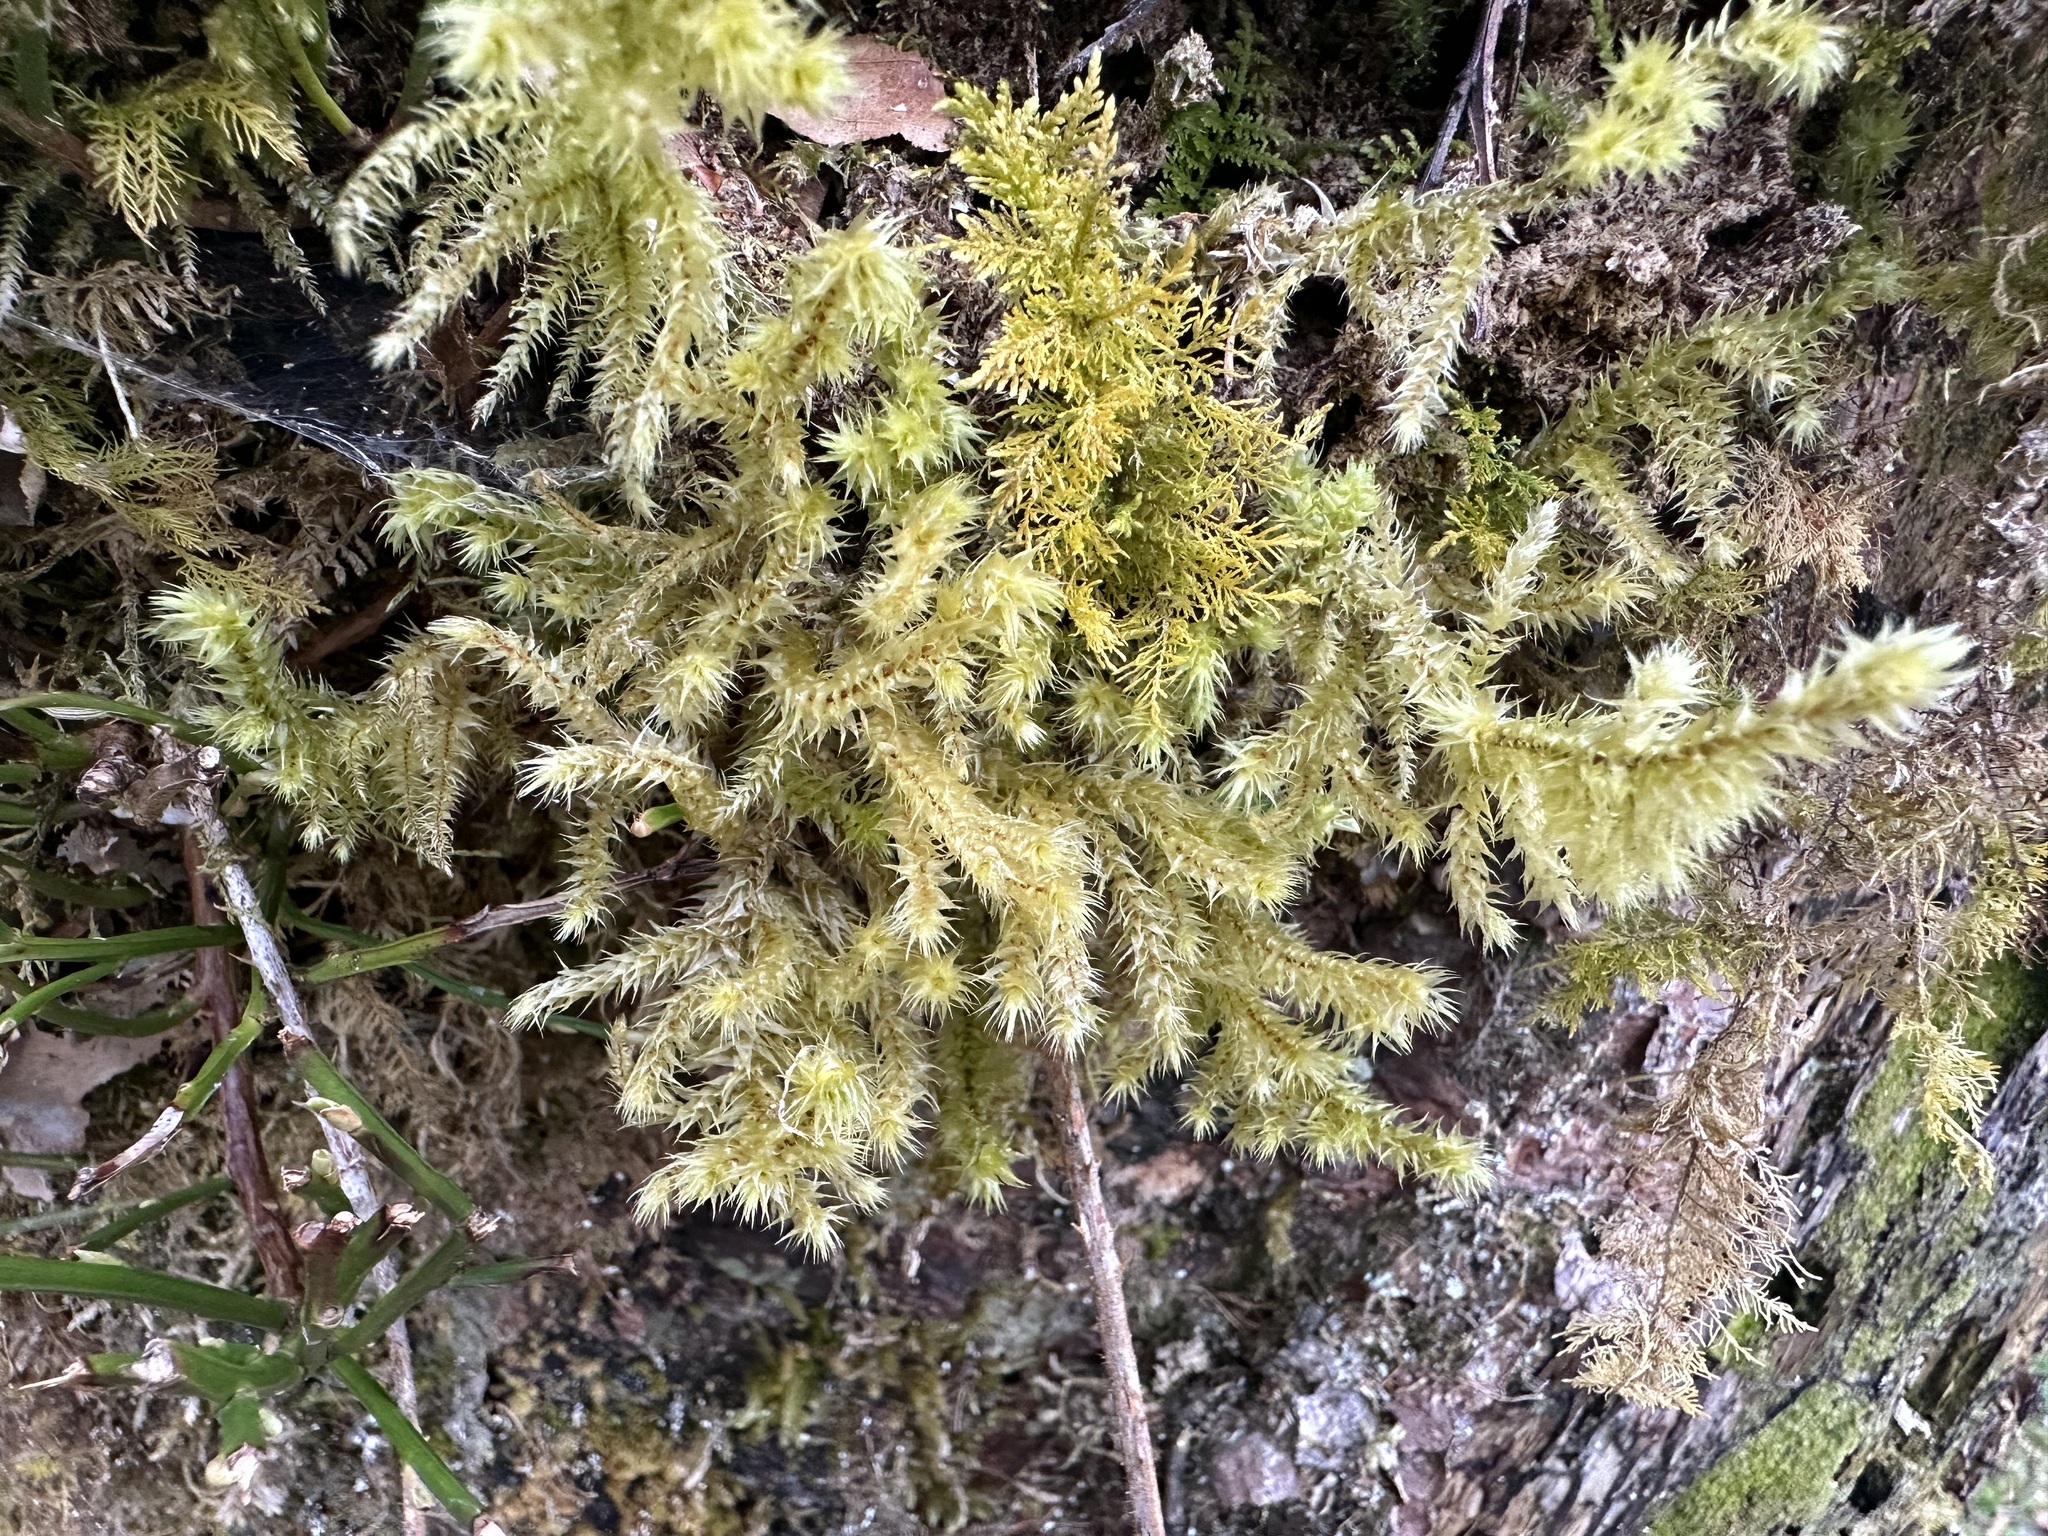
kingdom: Plantae
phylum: Bryophyta
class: Bryopsida
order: Hypnales
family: Hylocomiaceae
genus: Hylocomiadelphus
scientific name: Hylocomiadelphus triquetrus
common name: Rough goose neck moss
